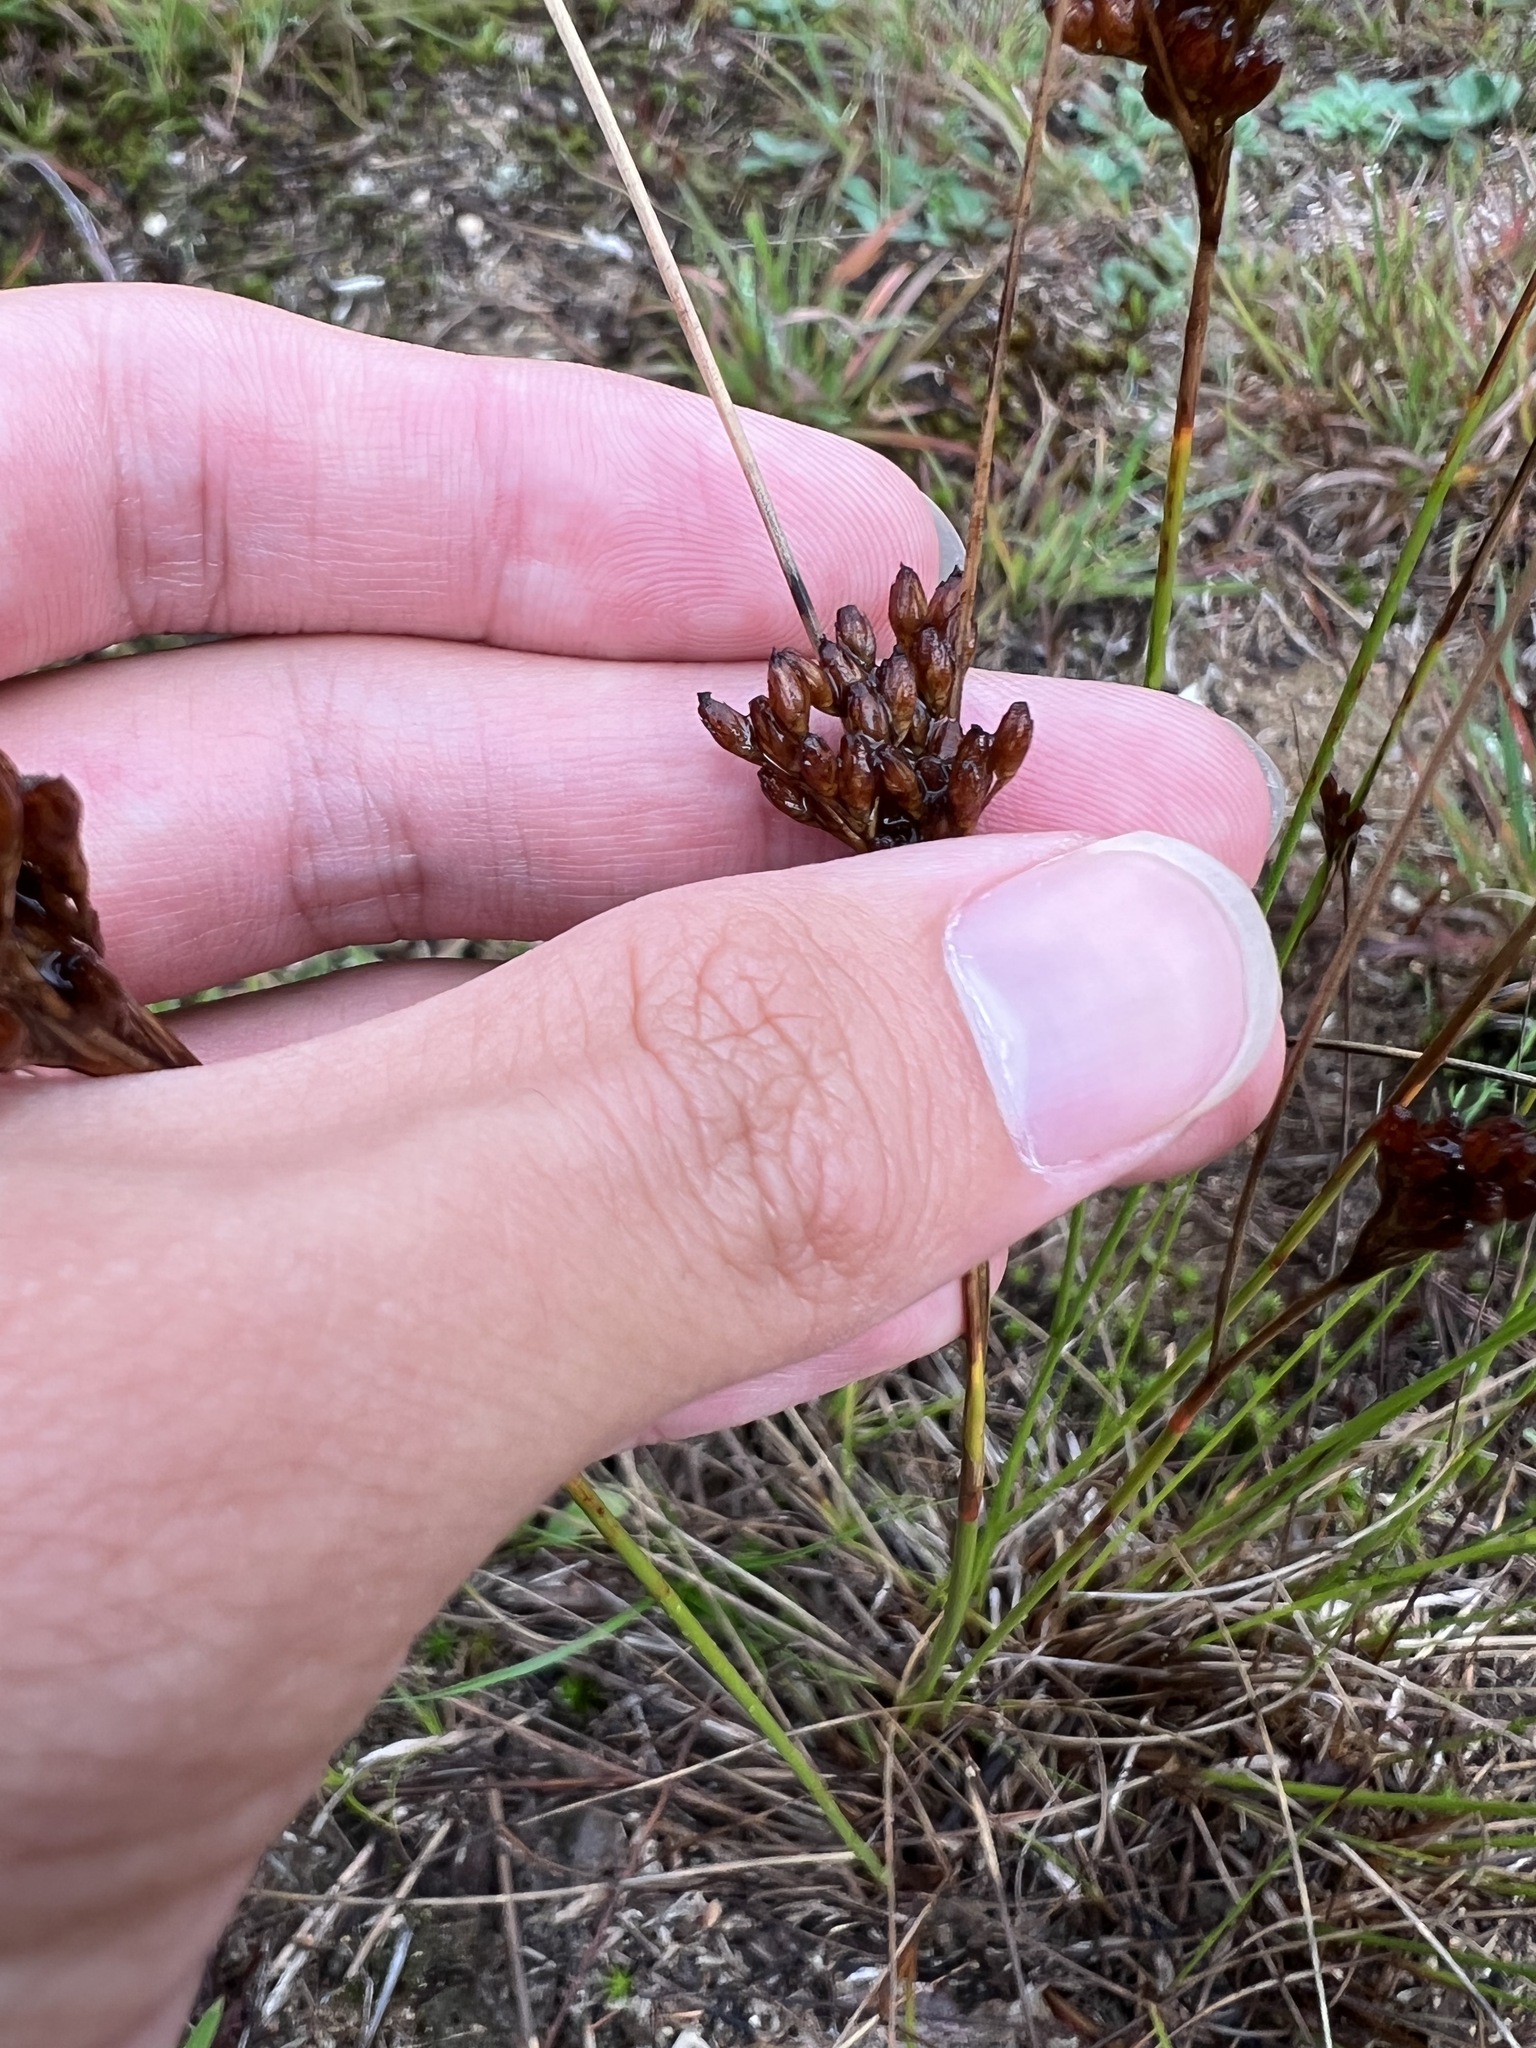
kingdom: Plantae
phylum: Tracheophyta
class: Liliopsida
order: Poales
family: Juncaceae
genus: Juncus
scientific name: Juncus greenei
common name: Greene's rush
